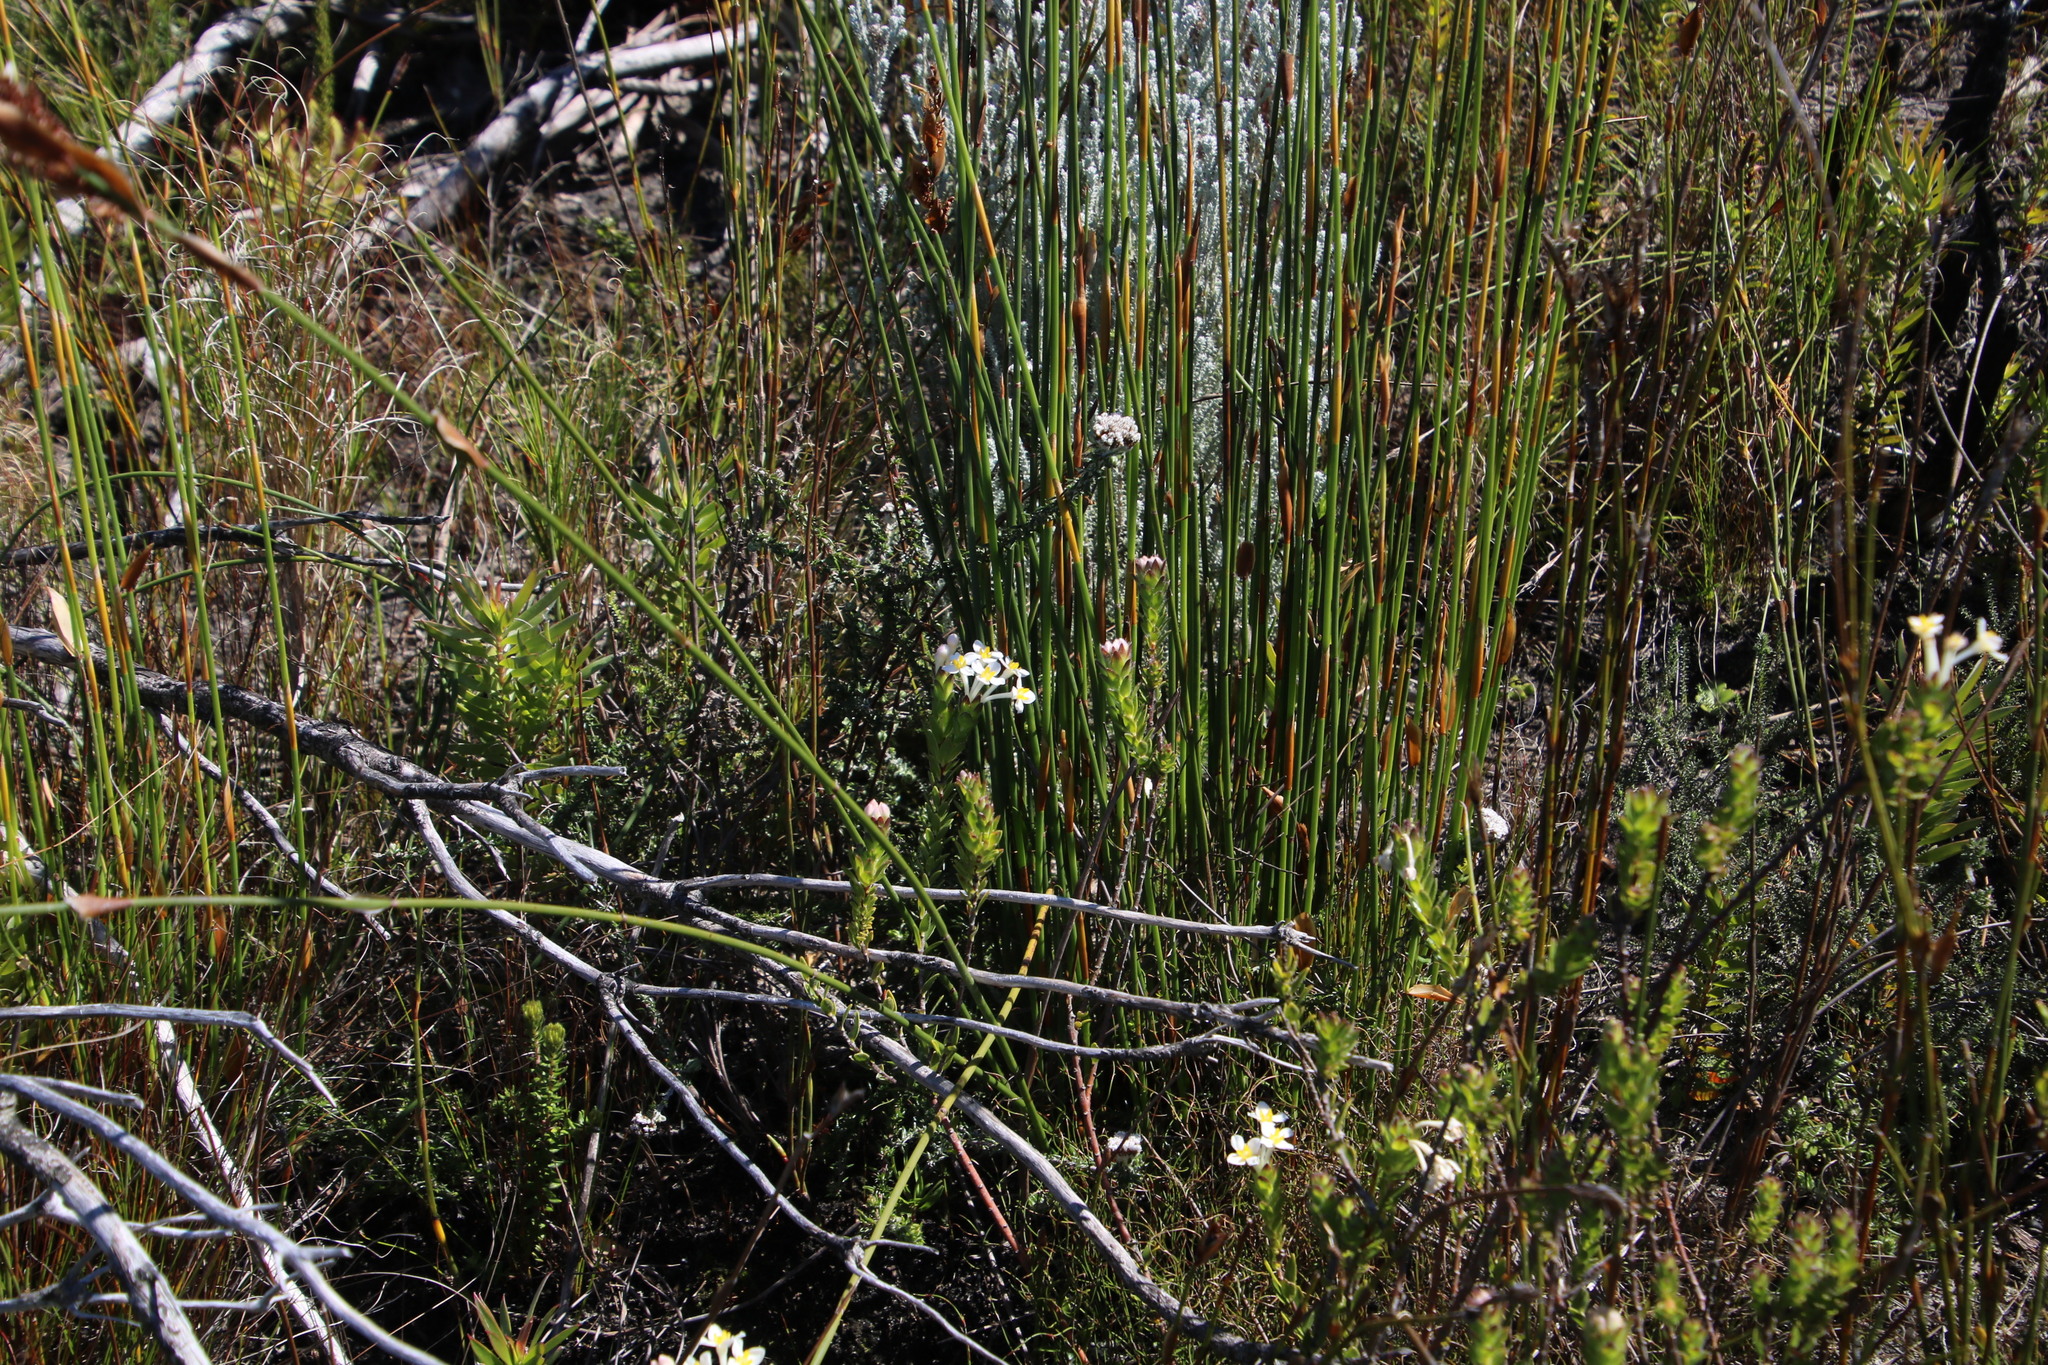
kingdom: Plantae
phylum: Tracheophyta
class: Magnoliopsida
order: Malvales
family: Thymelaeaceae
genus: Gnidia
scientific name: Gnidia tomentosa
